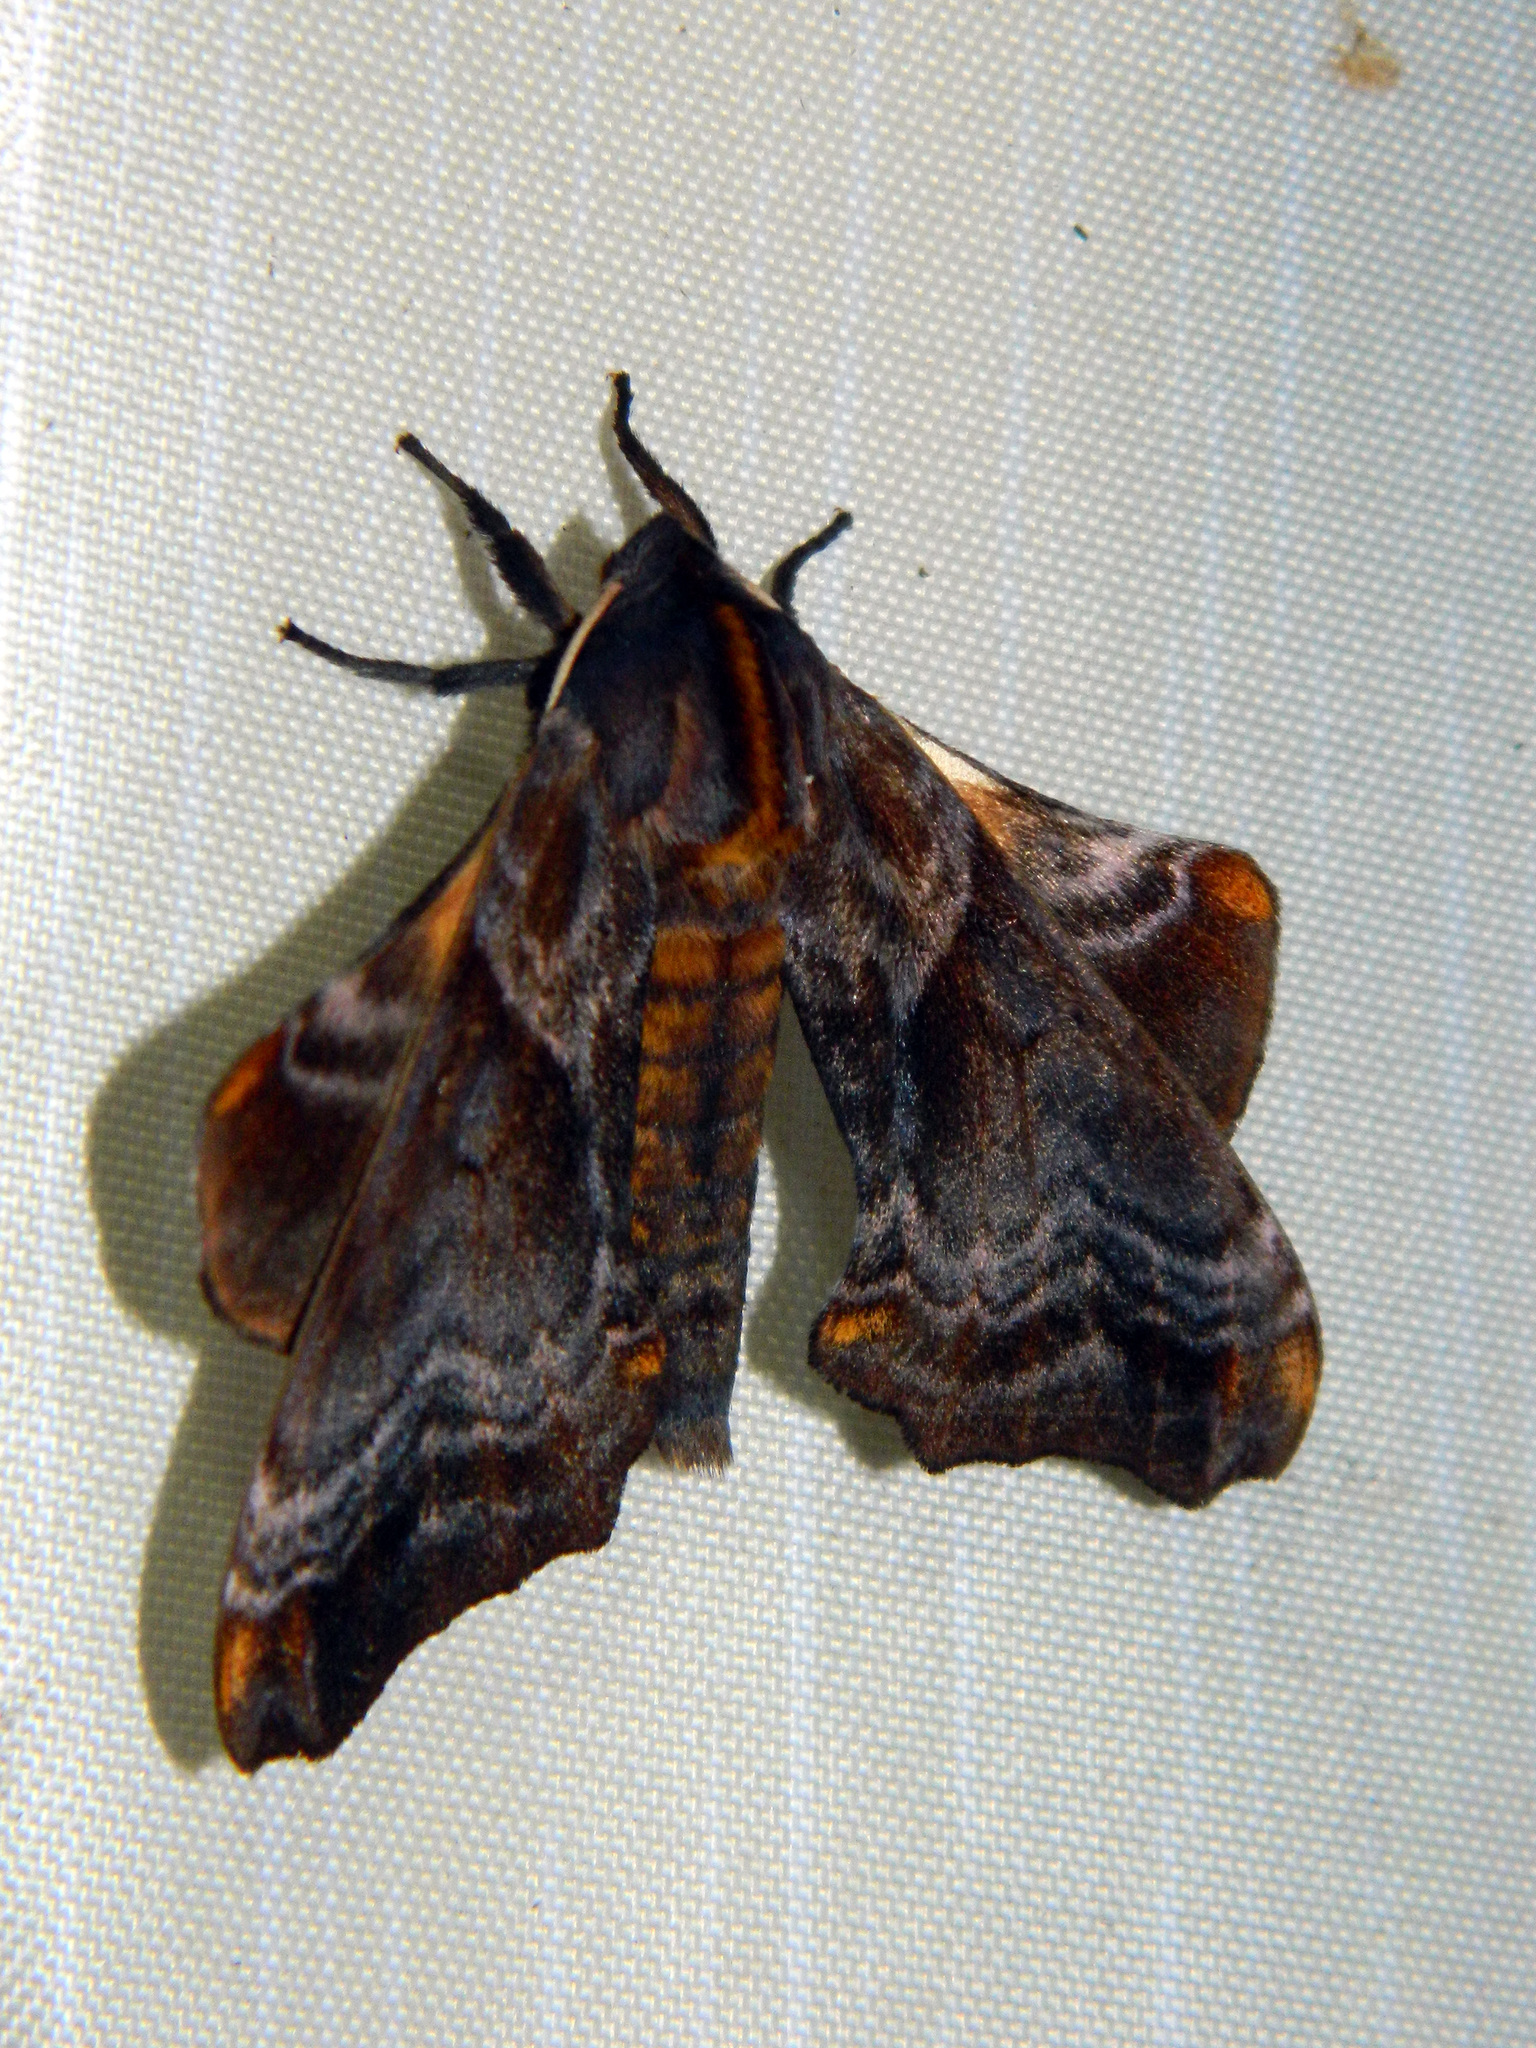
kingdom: Animalia
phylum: Arthropoda
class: Insecta
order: Lepidoptera
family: Sphingidae
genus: Paonias
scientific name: Paonias myops
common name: Small-eyed sphinx
